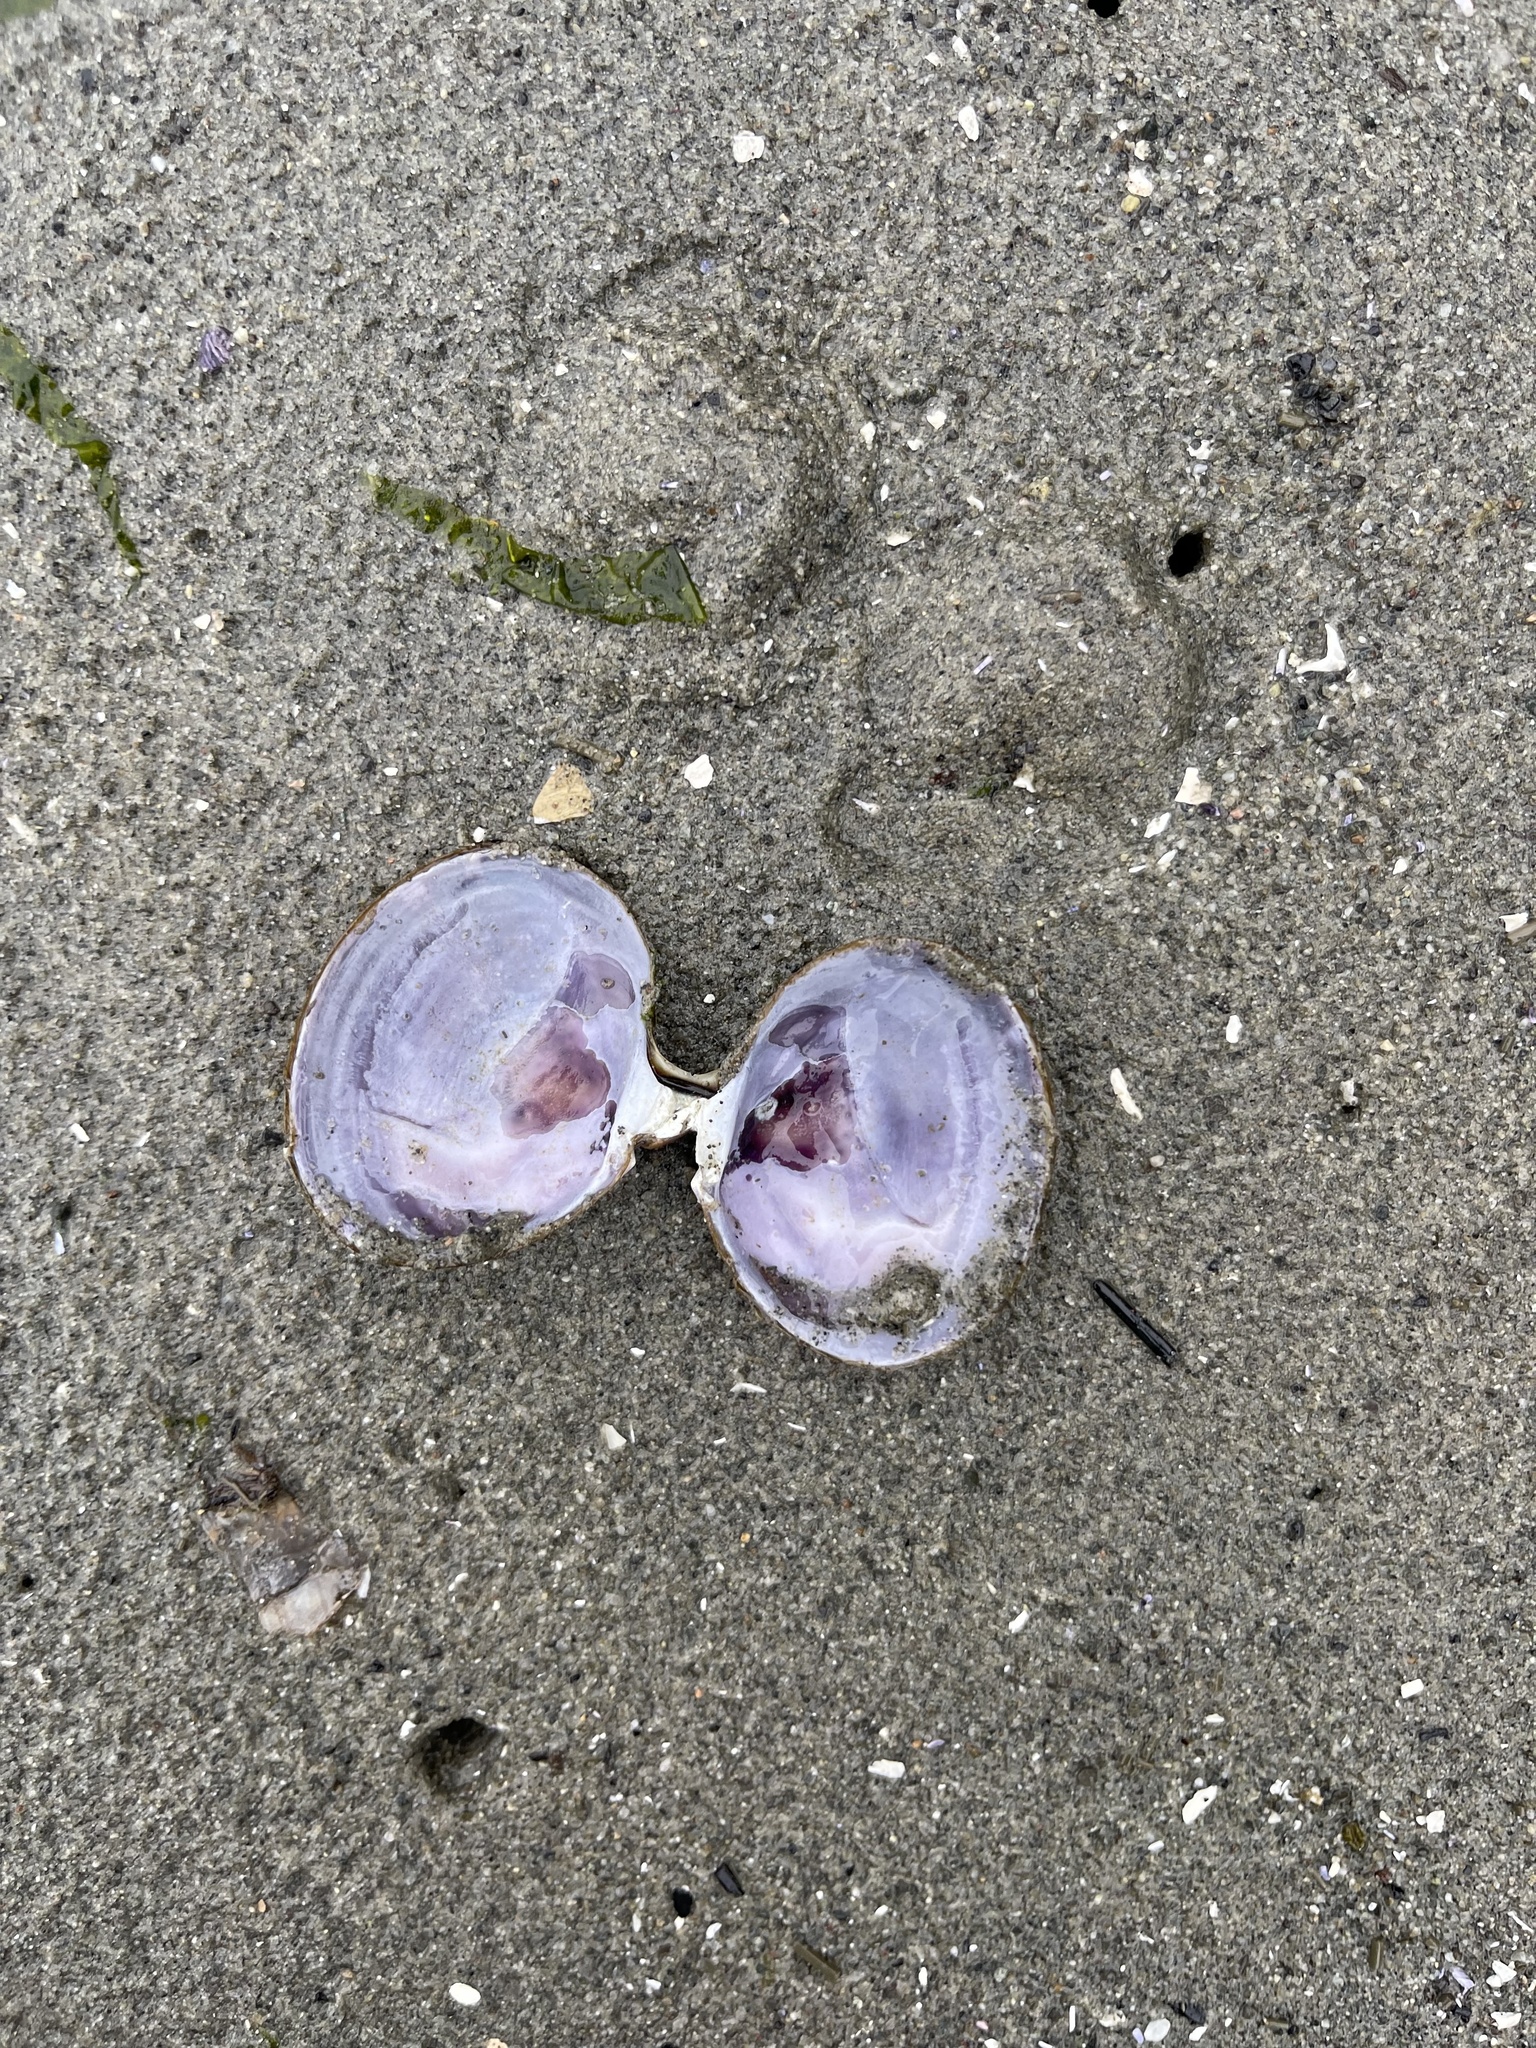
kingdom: Animalia
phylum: Mollusca
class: Bivalvia
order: Cardiida
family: Psammobiidae
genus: Nuttallia
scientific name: Nuttallia obscurata
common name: Purple mahogany-clam
